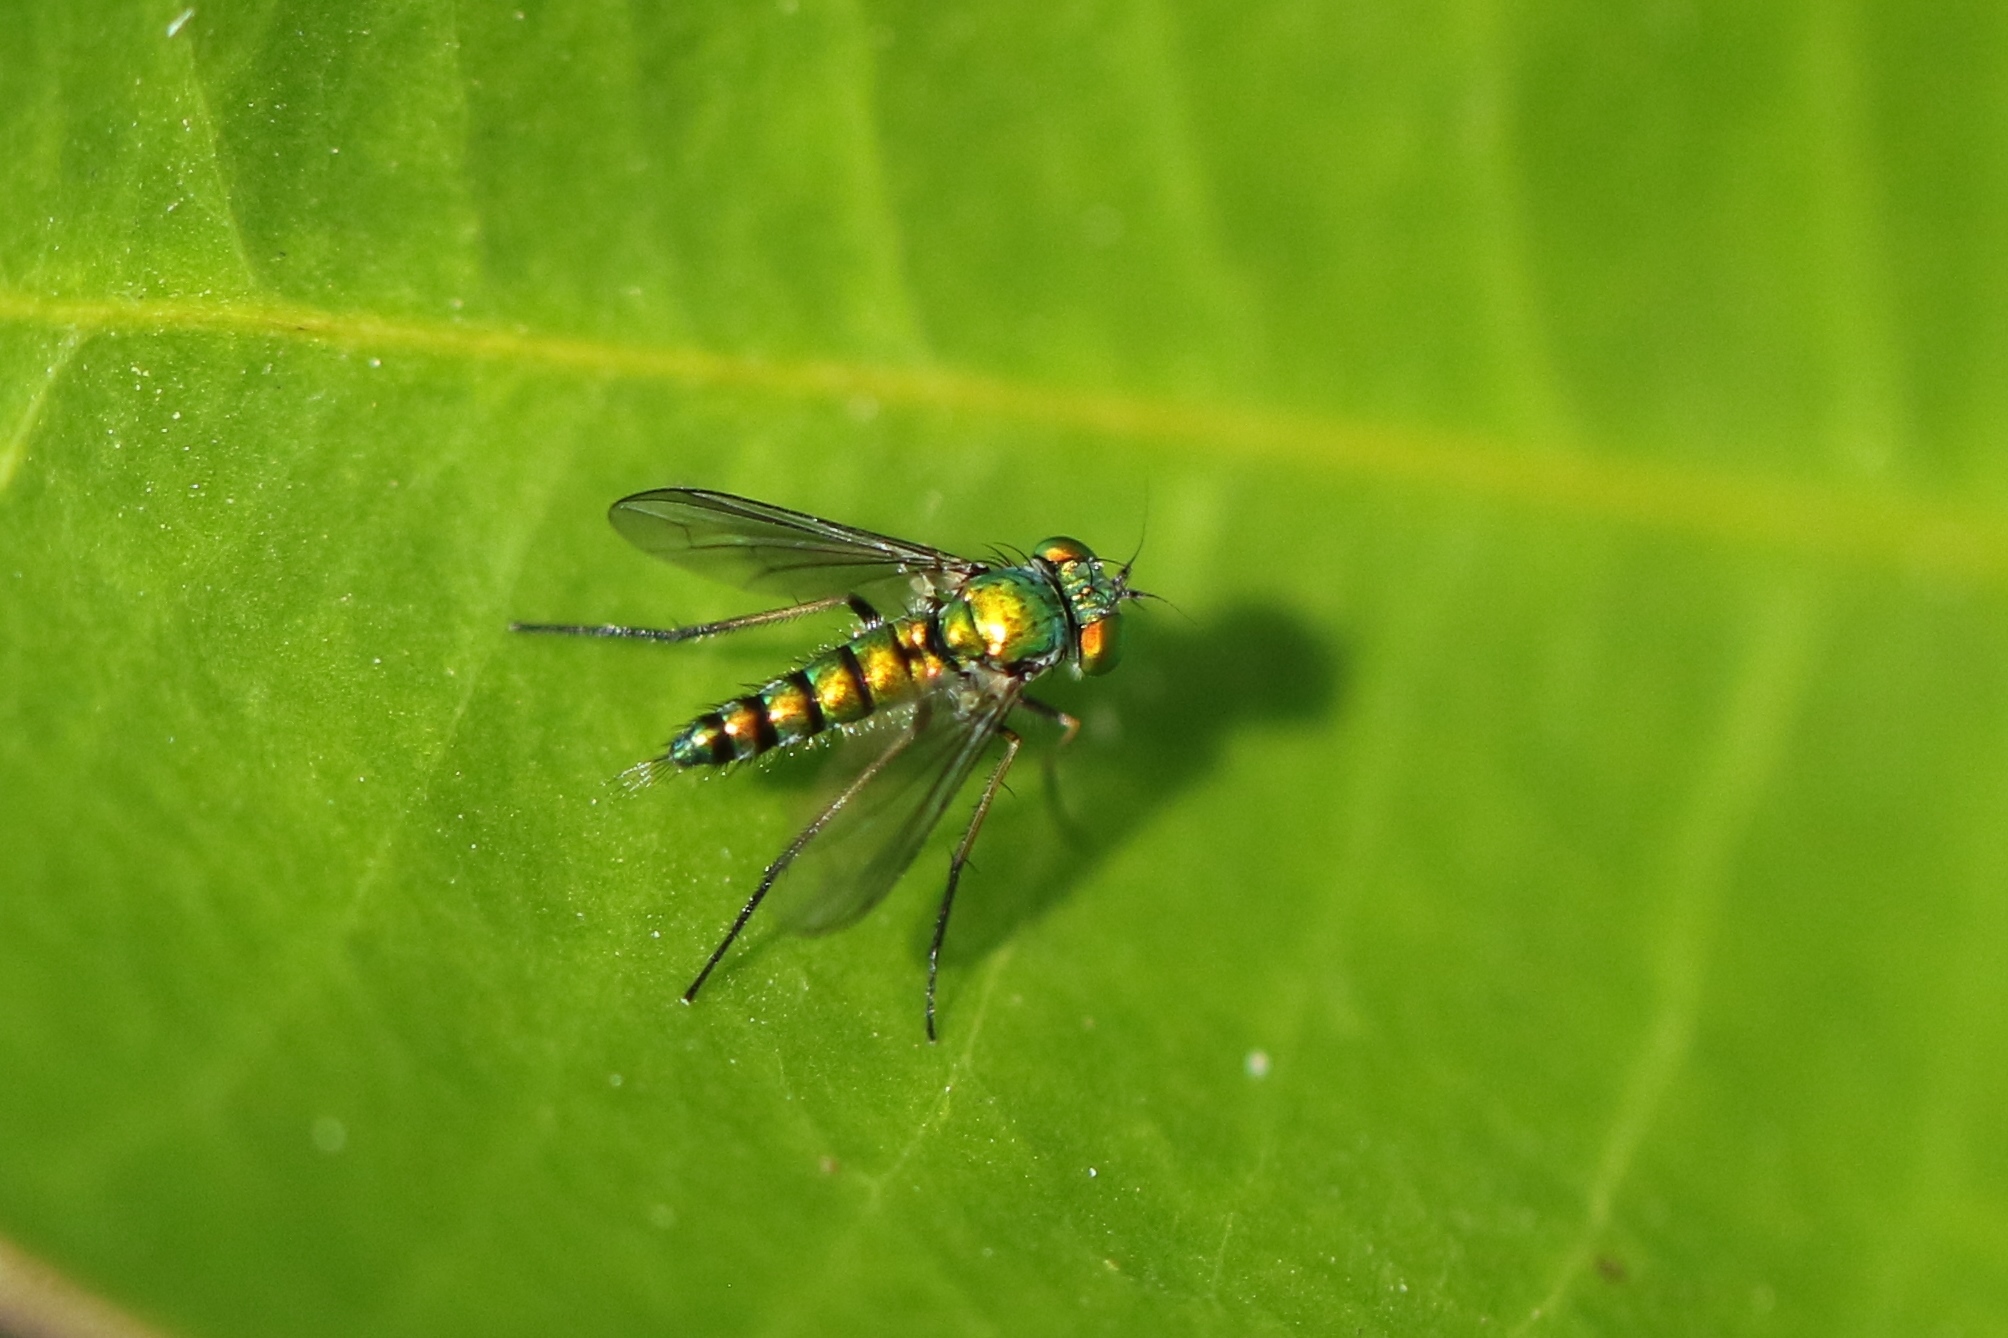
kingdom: Animalia
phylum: Arthropoda
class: Insecta
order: Diptera
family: Dolichopodidae
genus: Condylostylus
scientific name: Condylostylus caudatus
